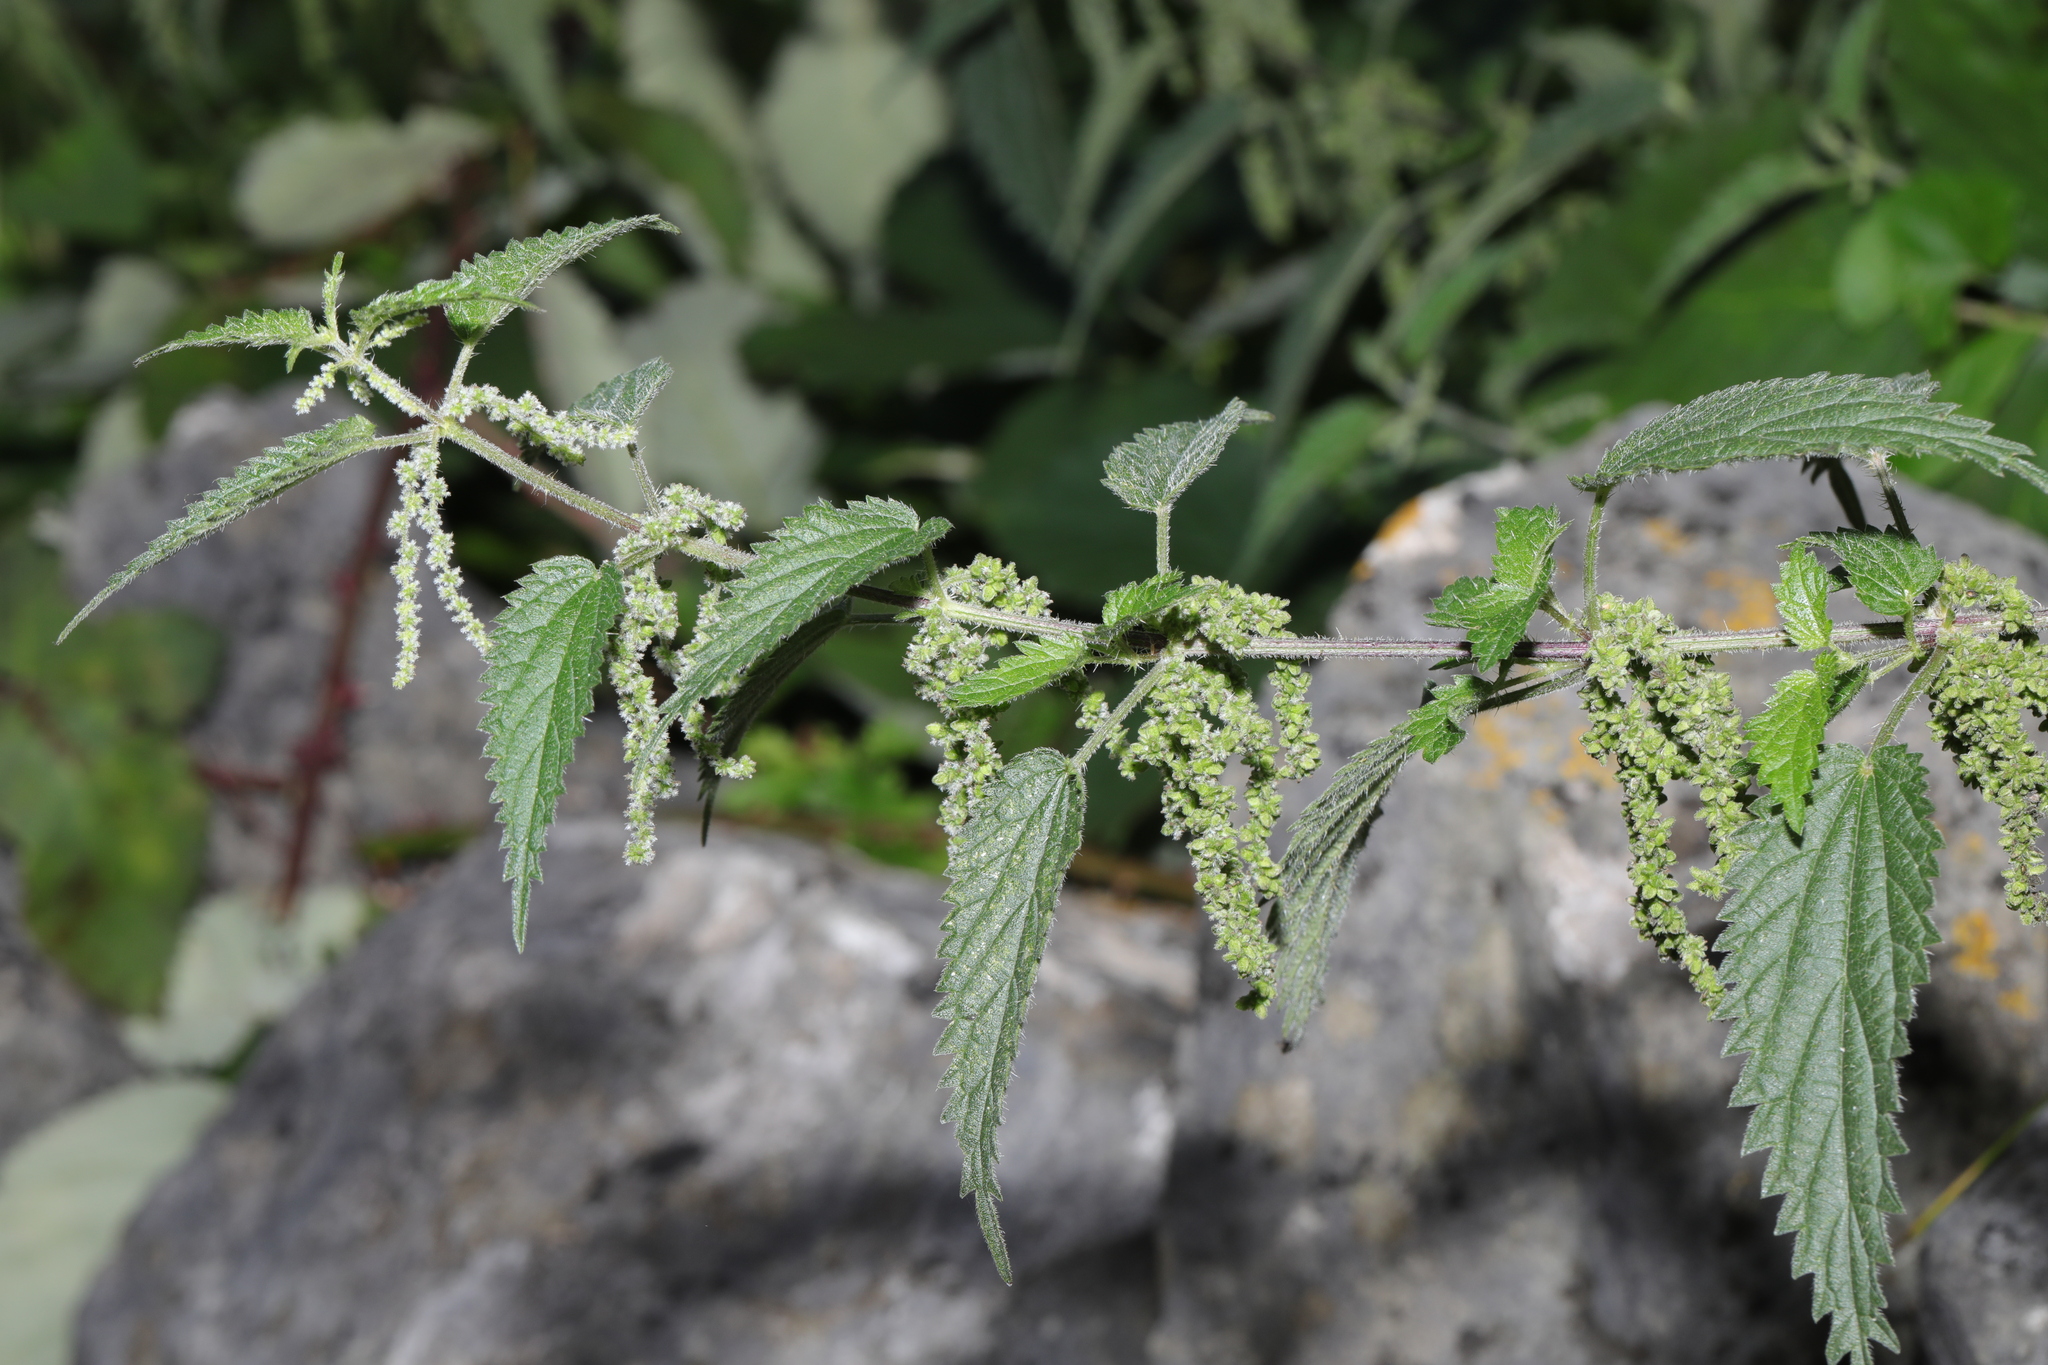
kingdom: Plantae
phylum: Tracheophyta
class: Magnoliopsida
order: Rosales
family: Urticaceae
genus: Urtica
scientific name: Urtica dioica
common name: Common nettle
